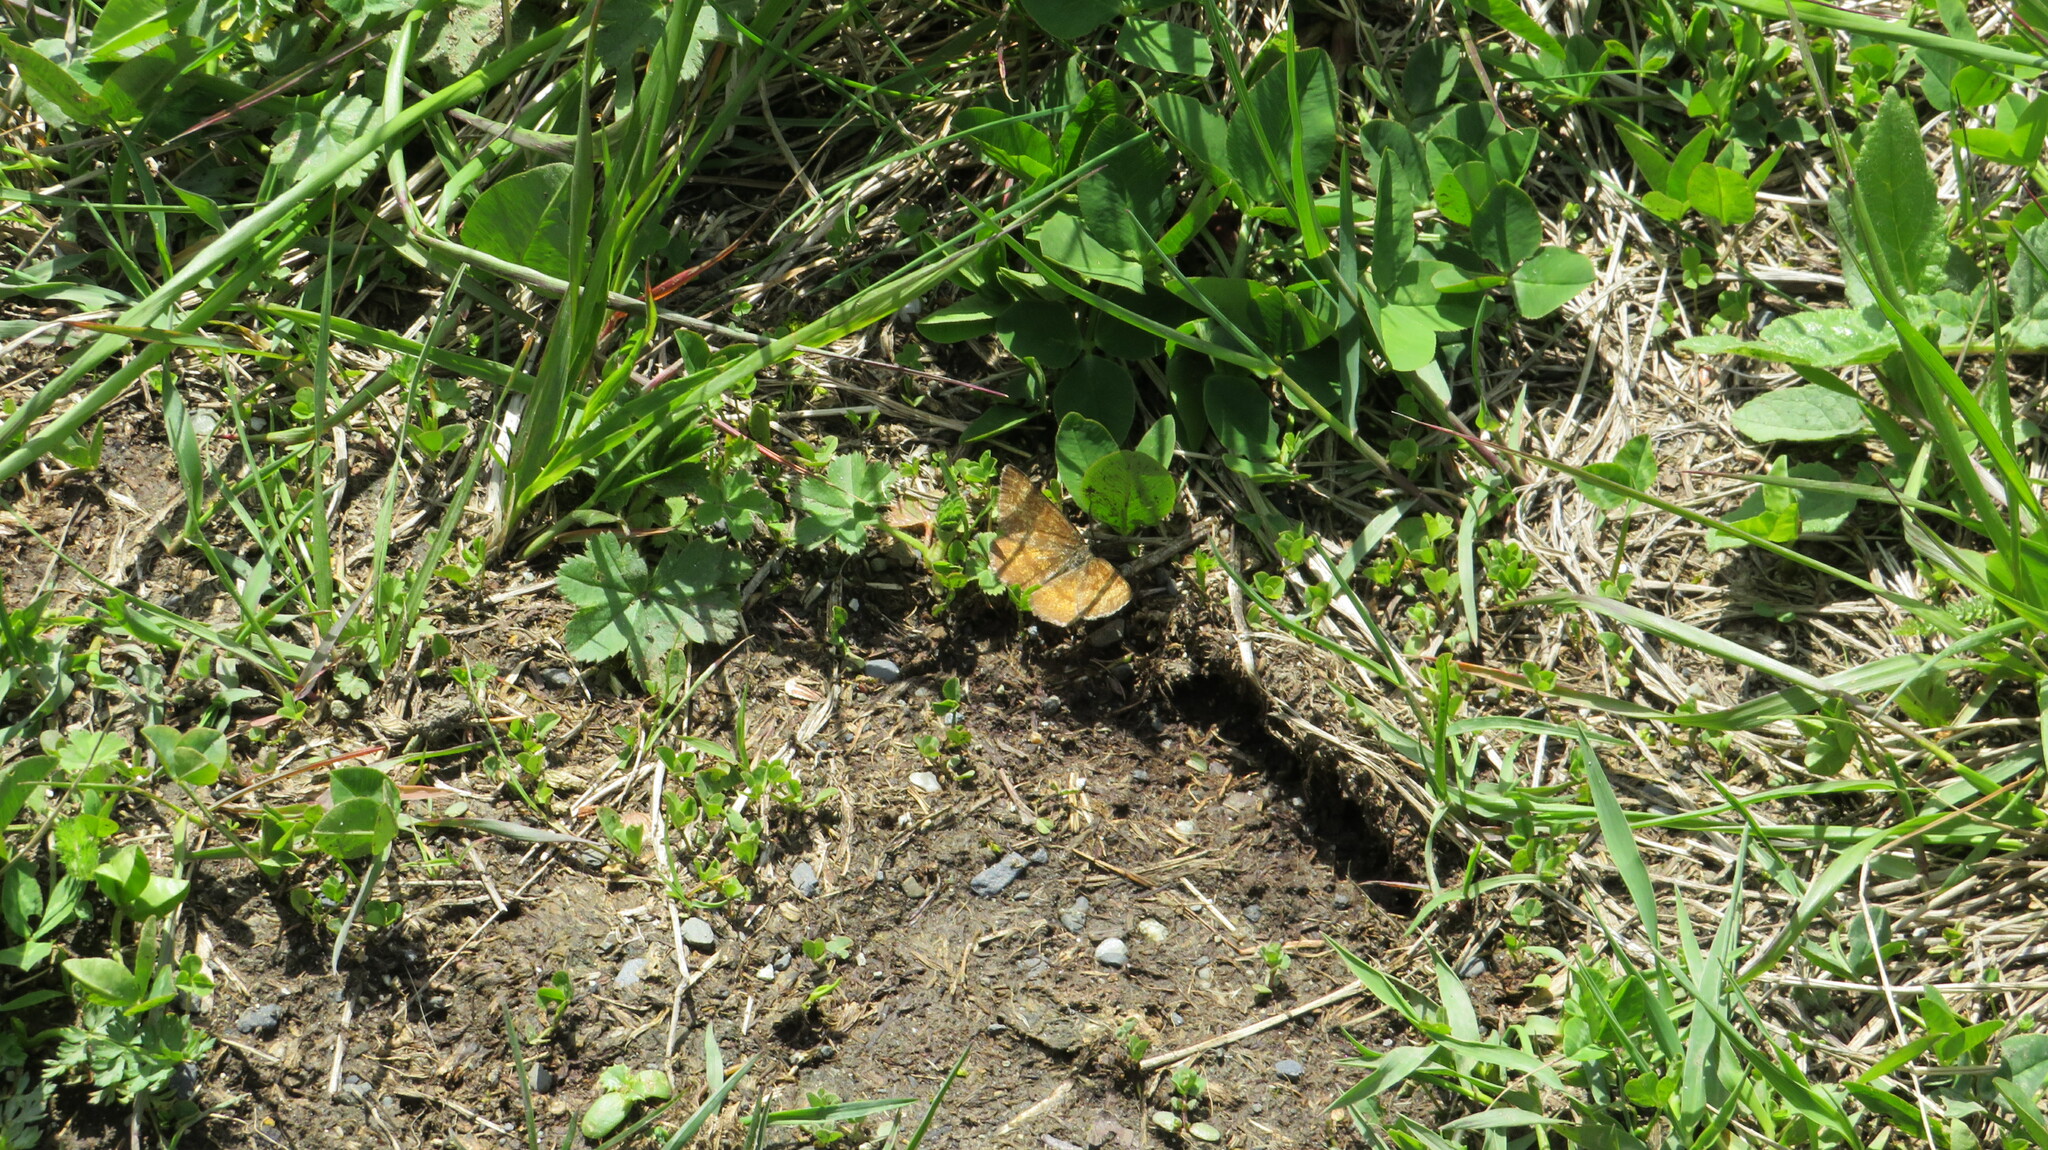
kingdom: Animalia
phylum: Arthropoda
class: Insecta
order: Lepidoptera
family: Geometridae
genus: Ematurga
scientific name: Ematurga atomaria
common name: Common heath
